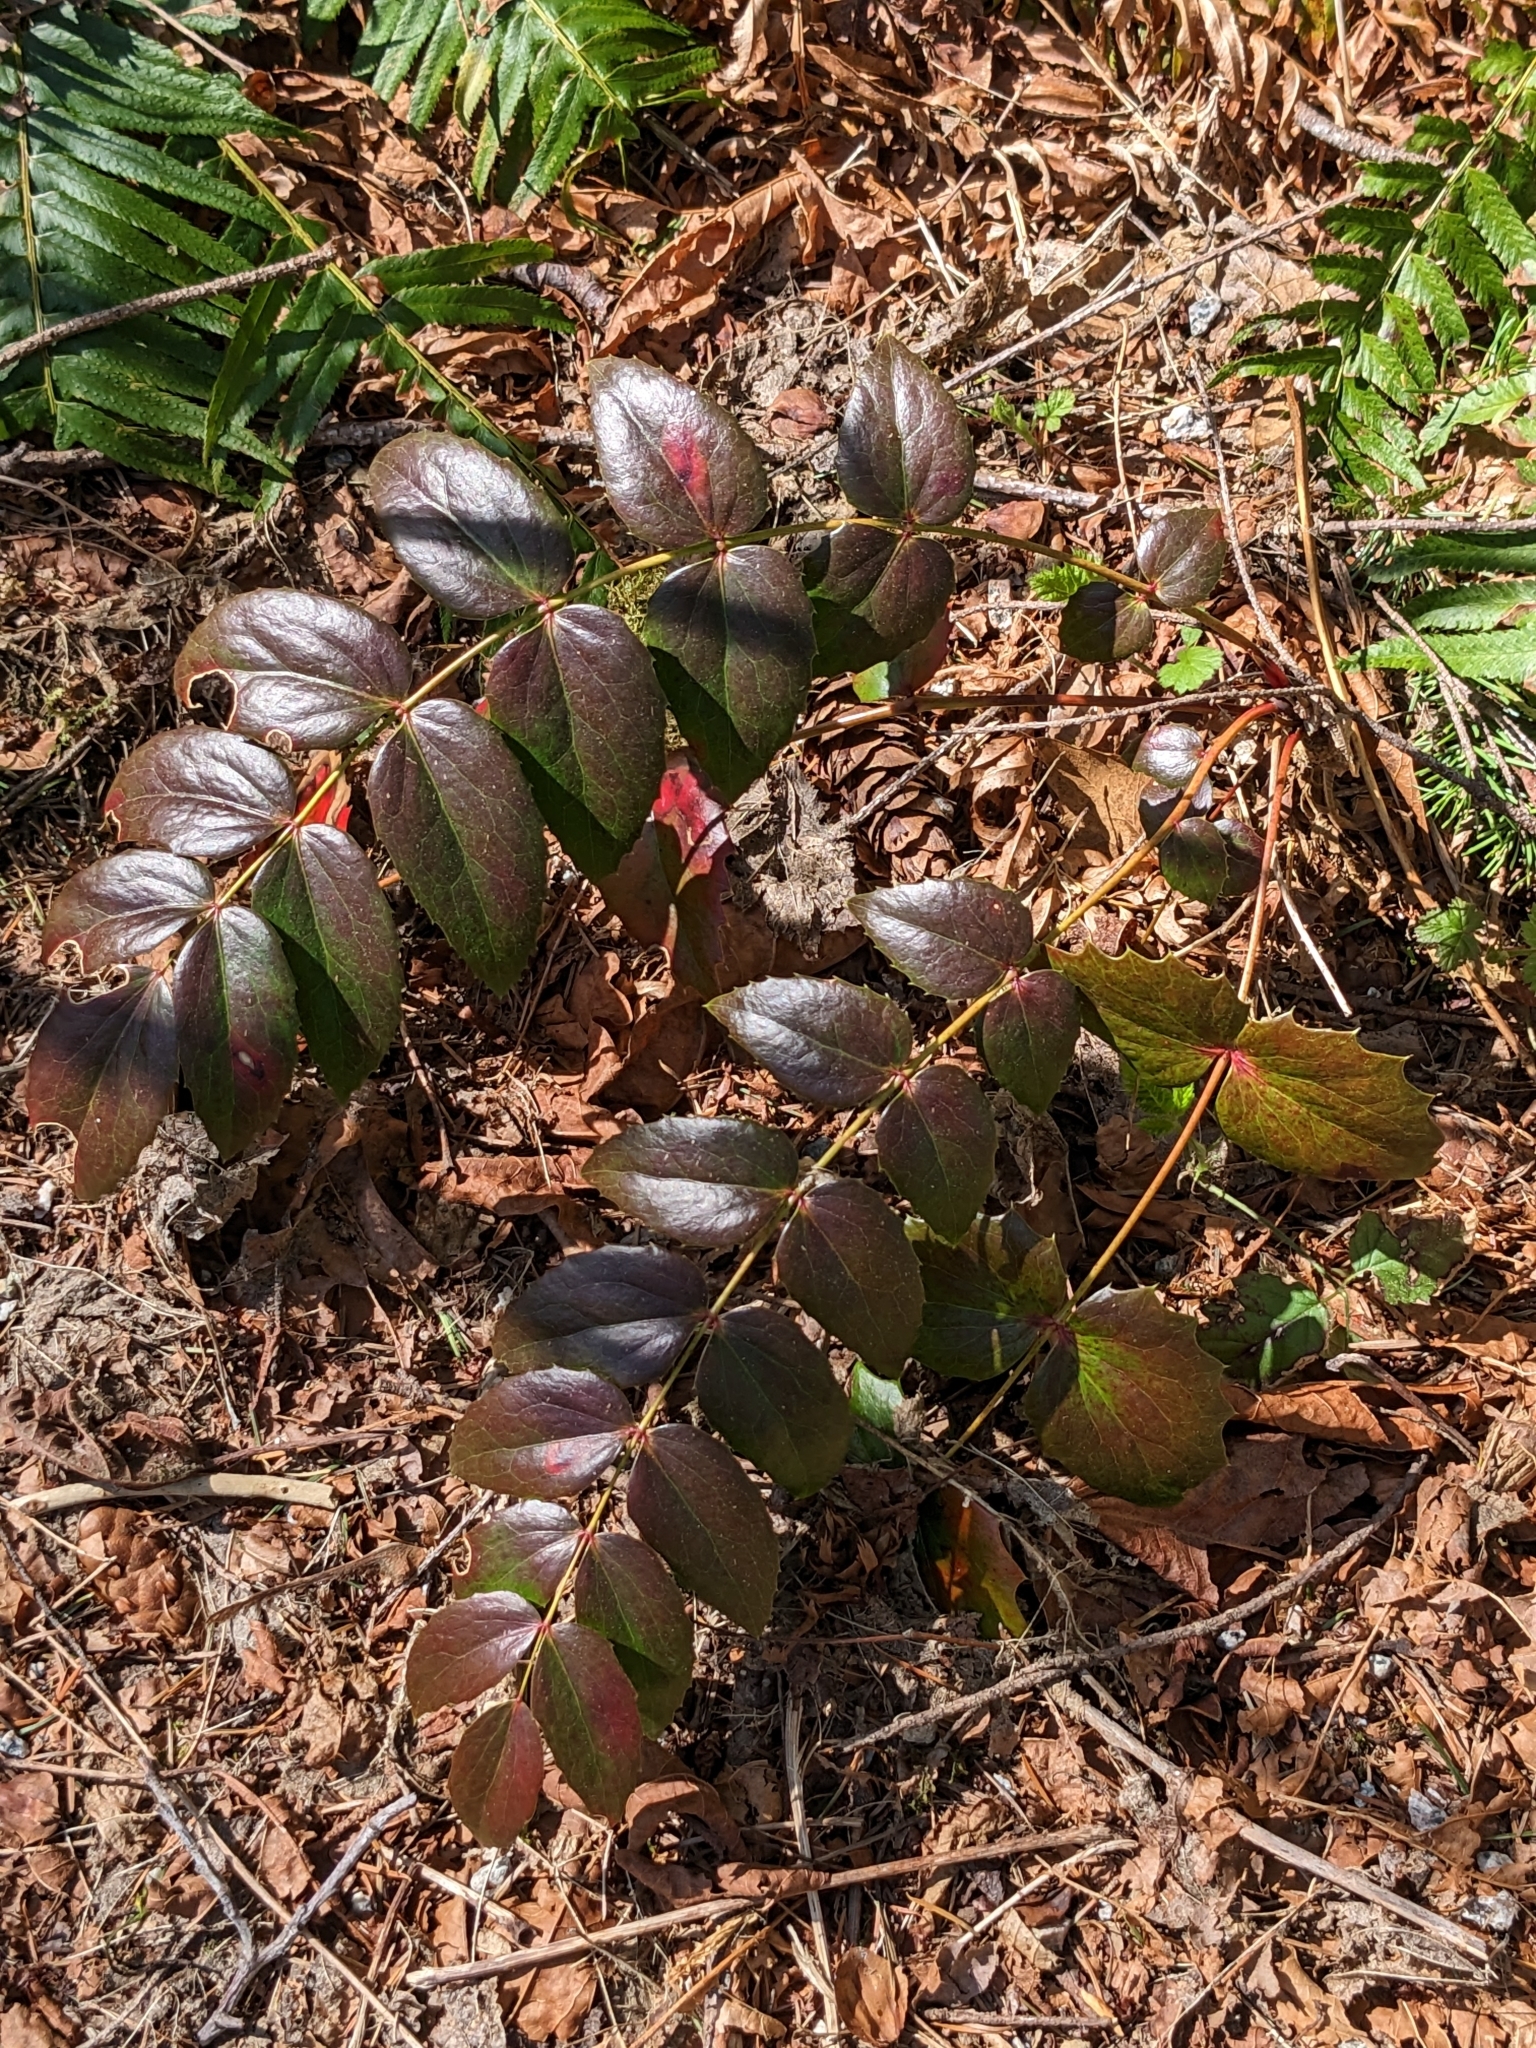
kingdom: Plantae
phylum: Tracheophyta
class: Magnoliopsida
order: Ranunculales
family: Berberidaceae
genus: Mahonia
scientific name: Mahonia nervosa
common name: Cascade oregon-grape
